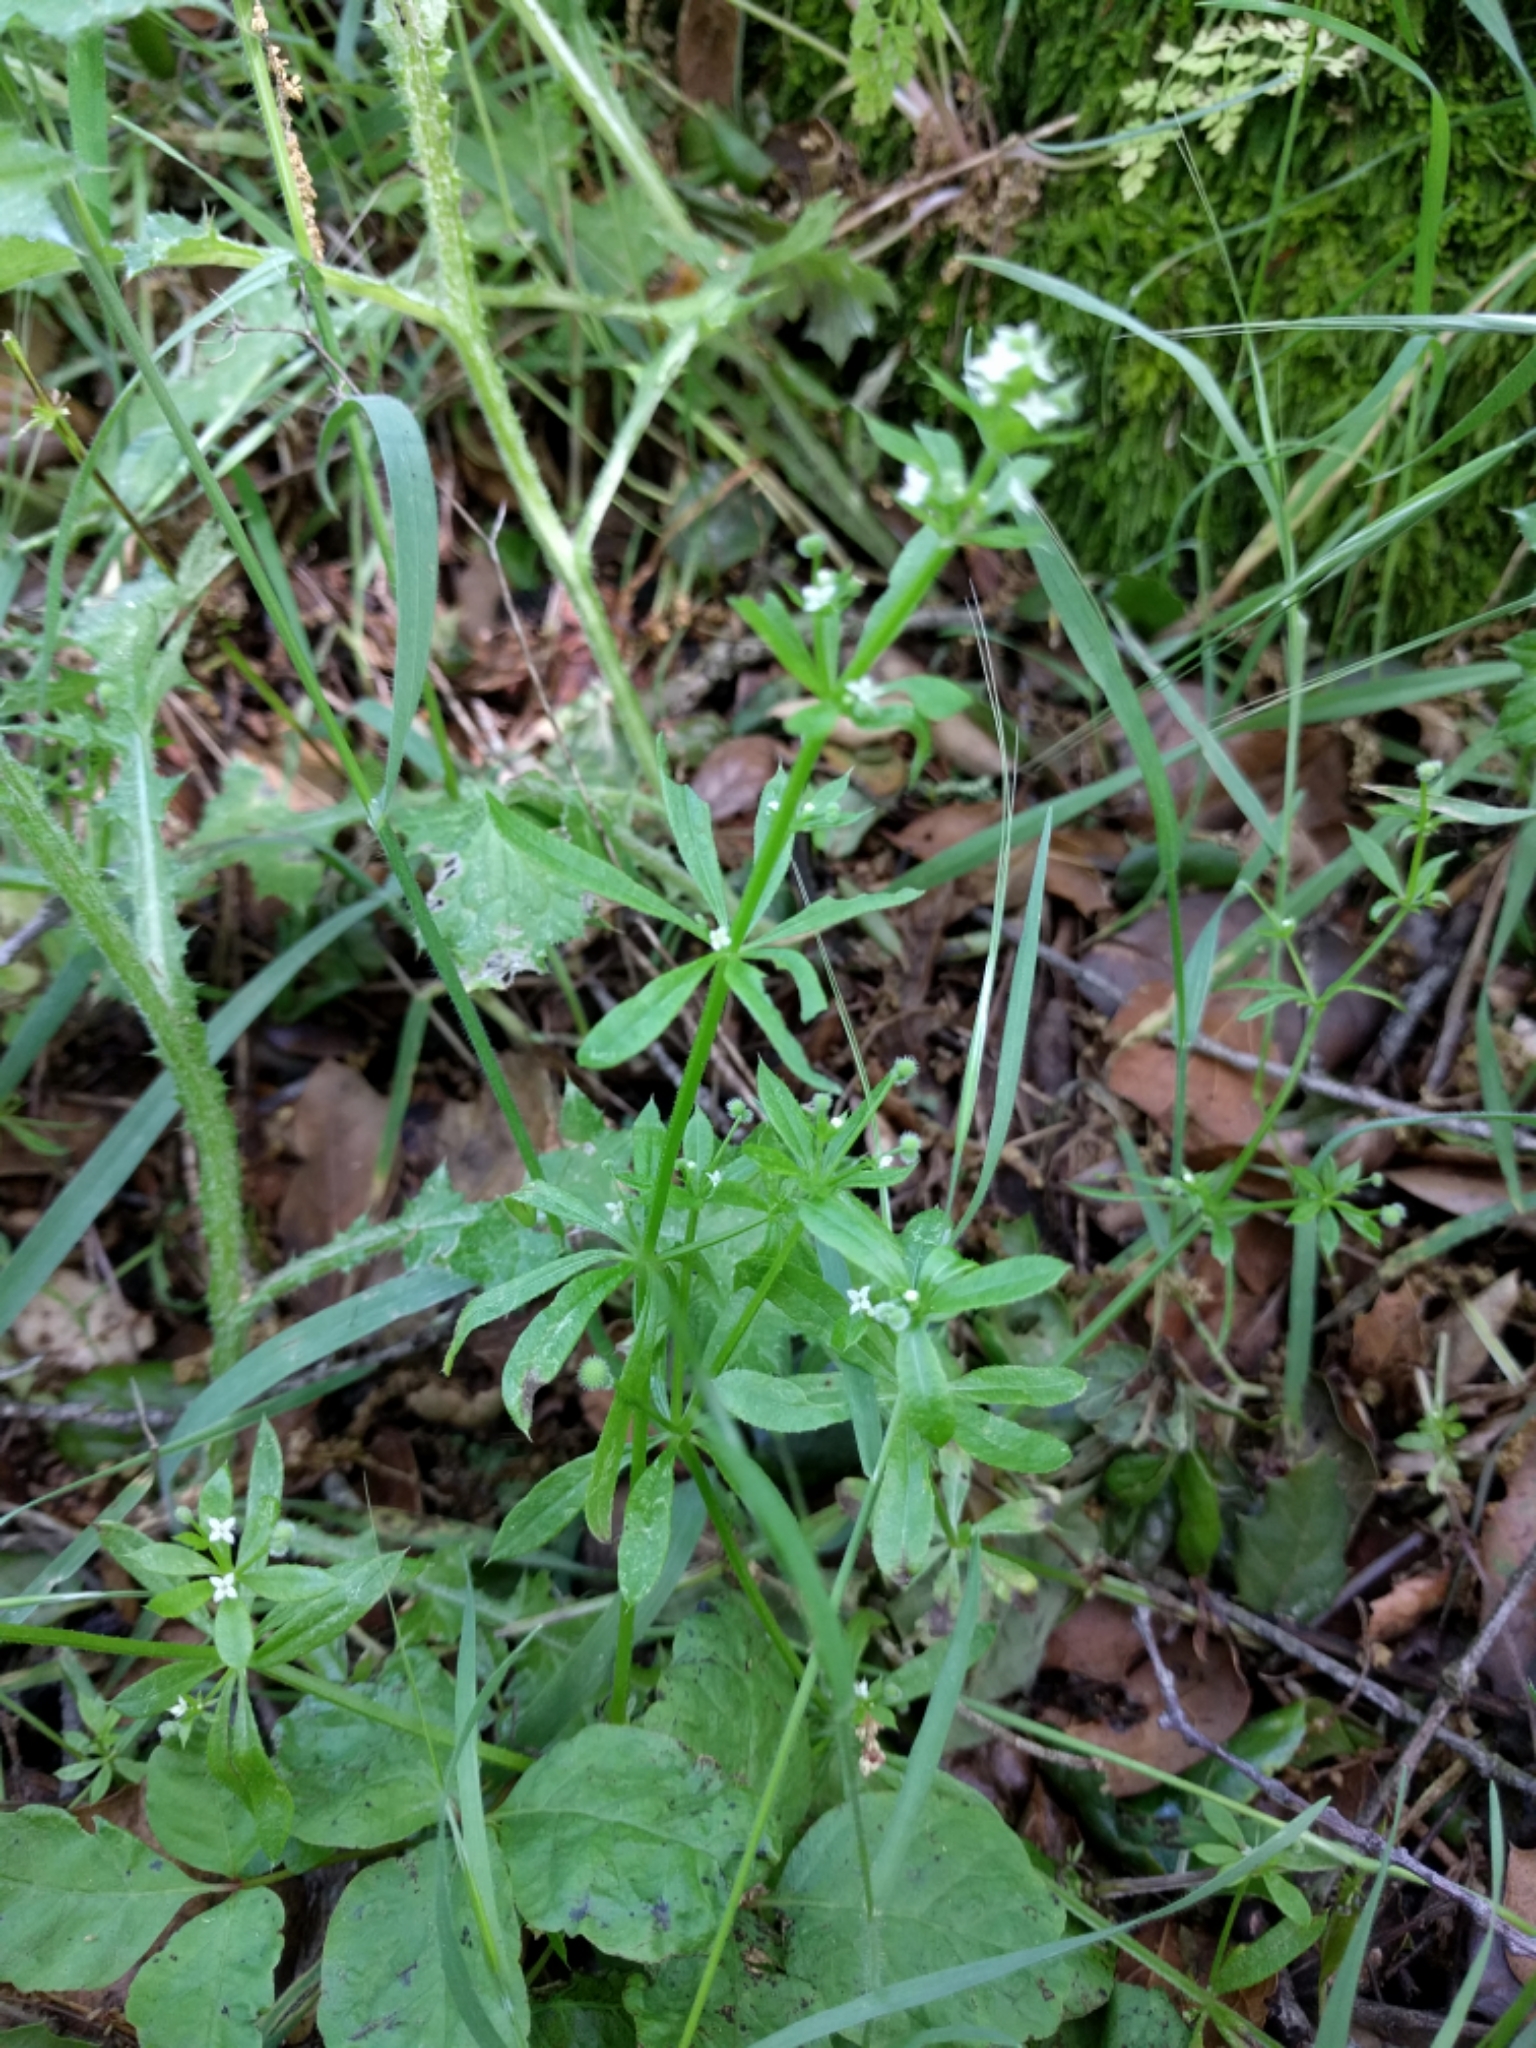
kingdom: Plantae
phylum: Tracheophyta
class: Magnoliopsida
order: Gentianales
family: Rubiaceae
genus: Galium
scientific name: Galium aparine
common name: Cleavers
